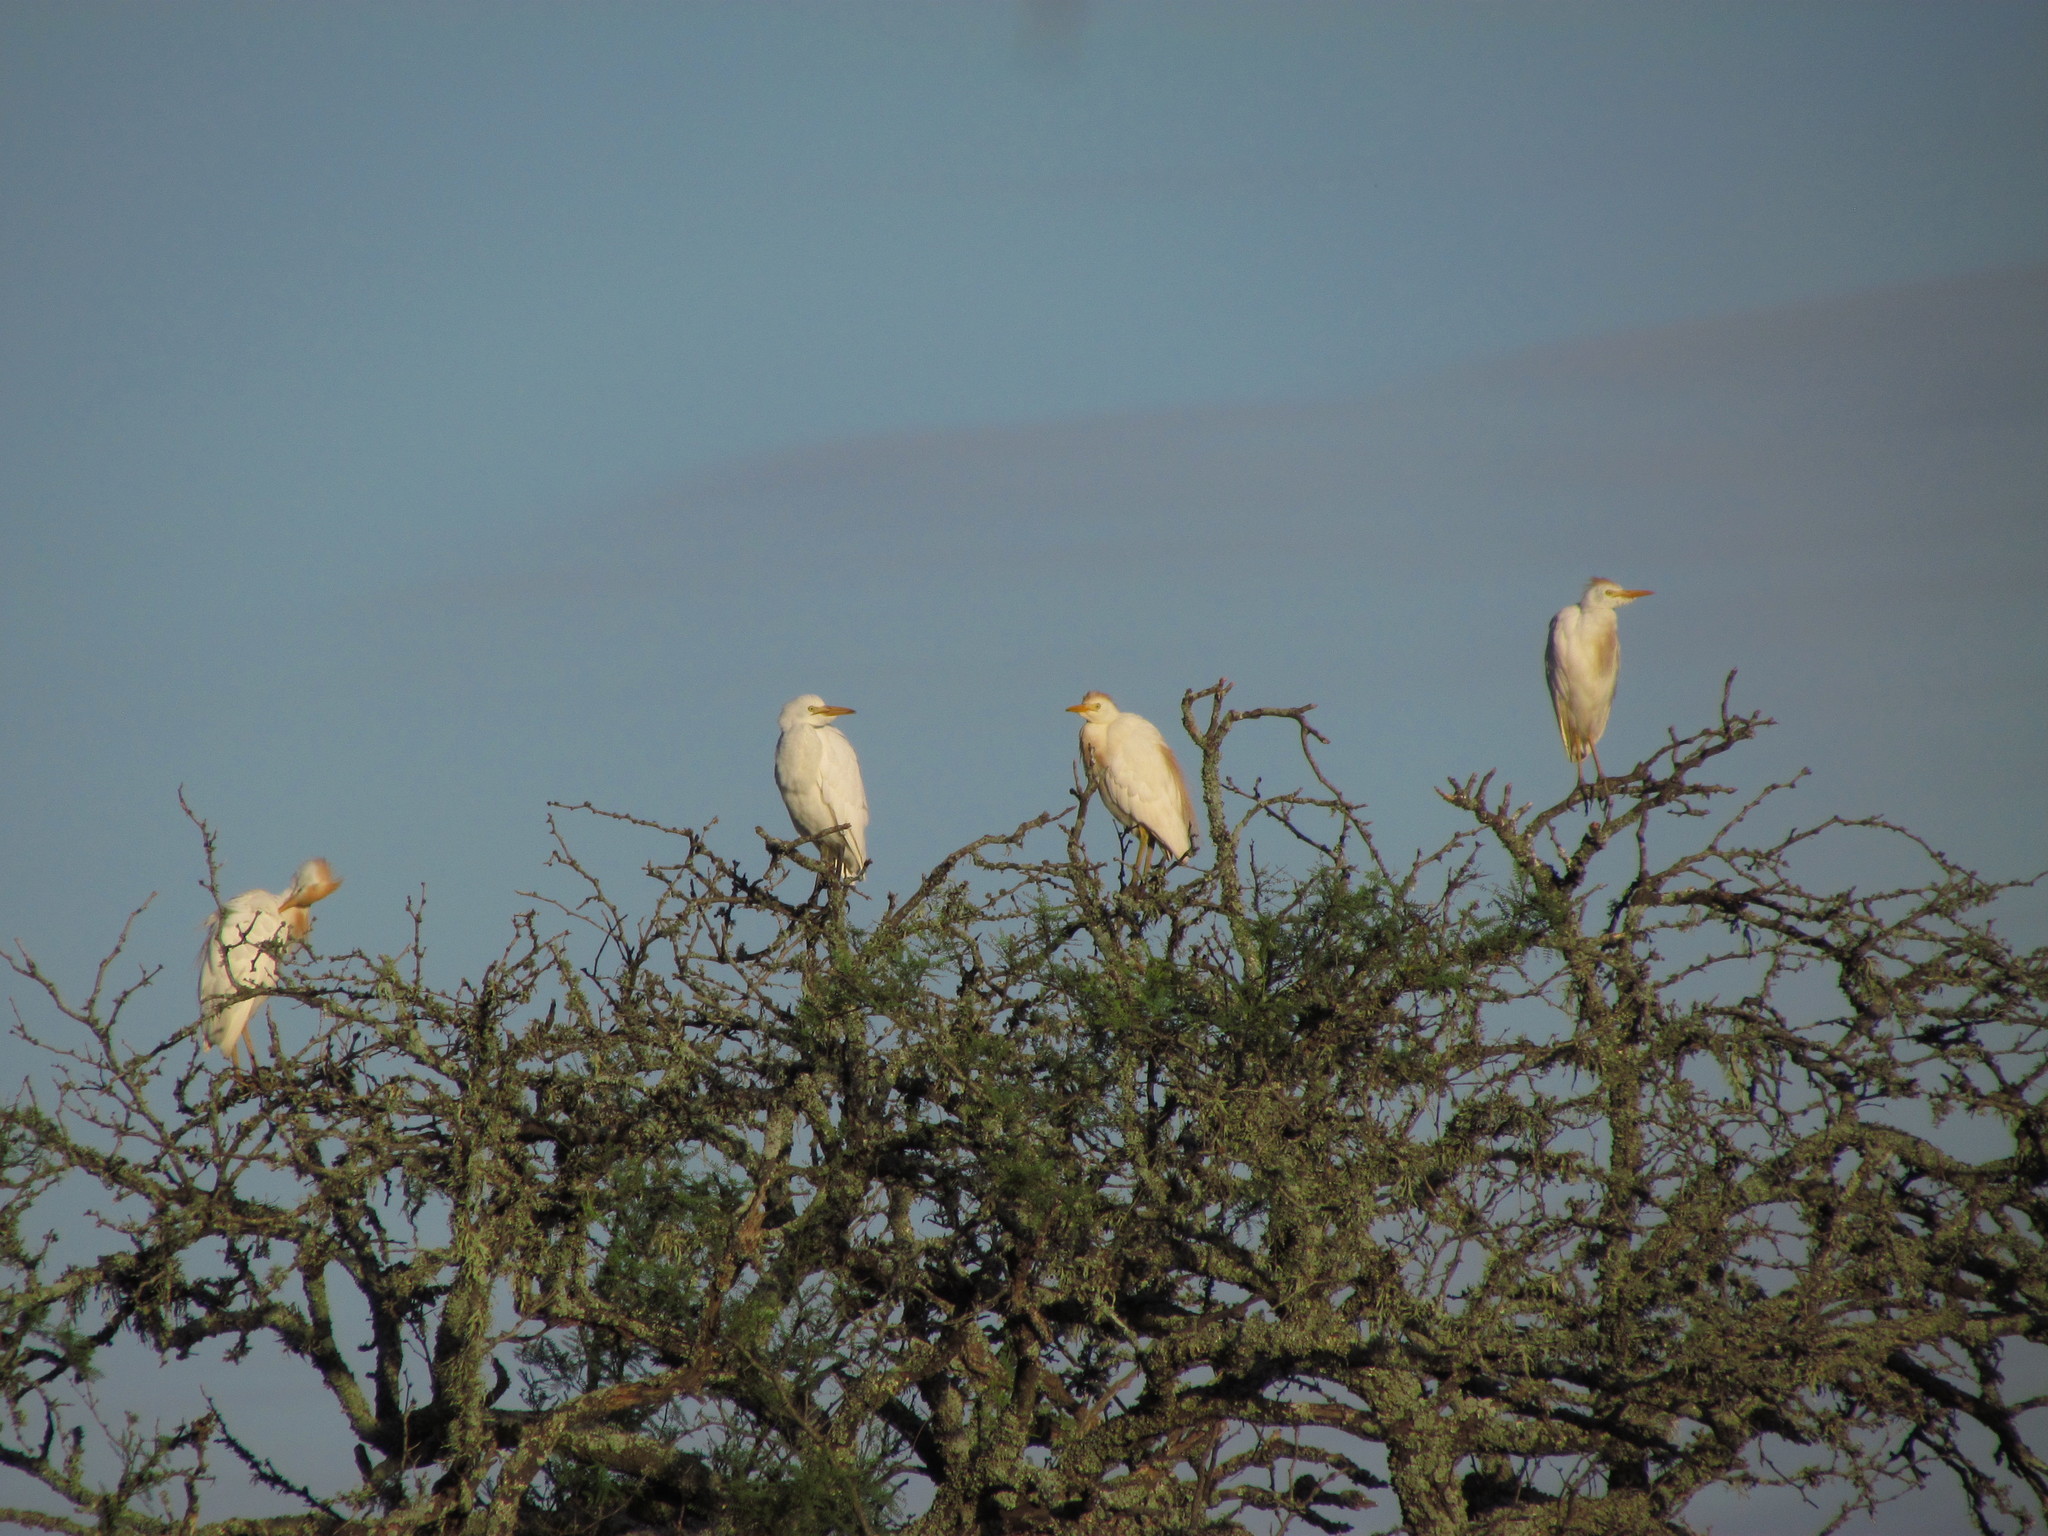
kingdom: Animalia
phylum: Chordata
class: Aves
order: Pelecaniformes
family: Ardeidae
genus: Bubulcus
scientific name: Bubulcus ibis
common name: Cattle egret
